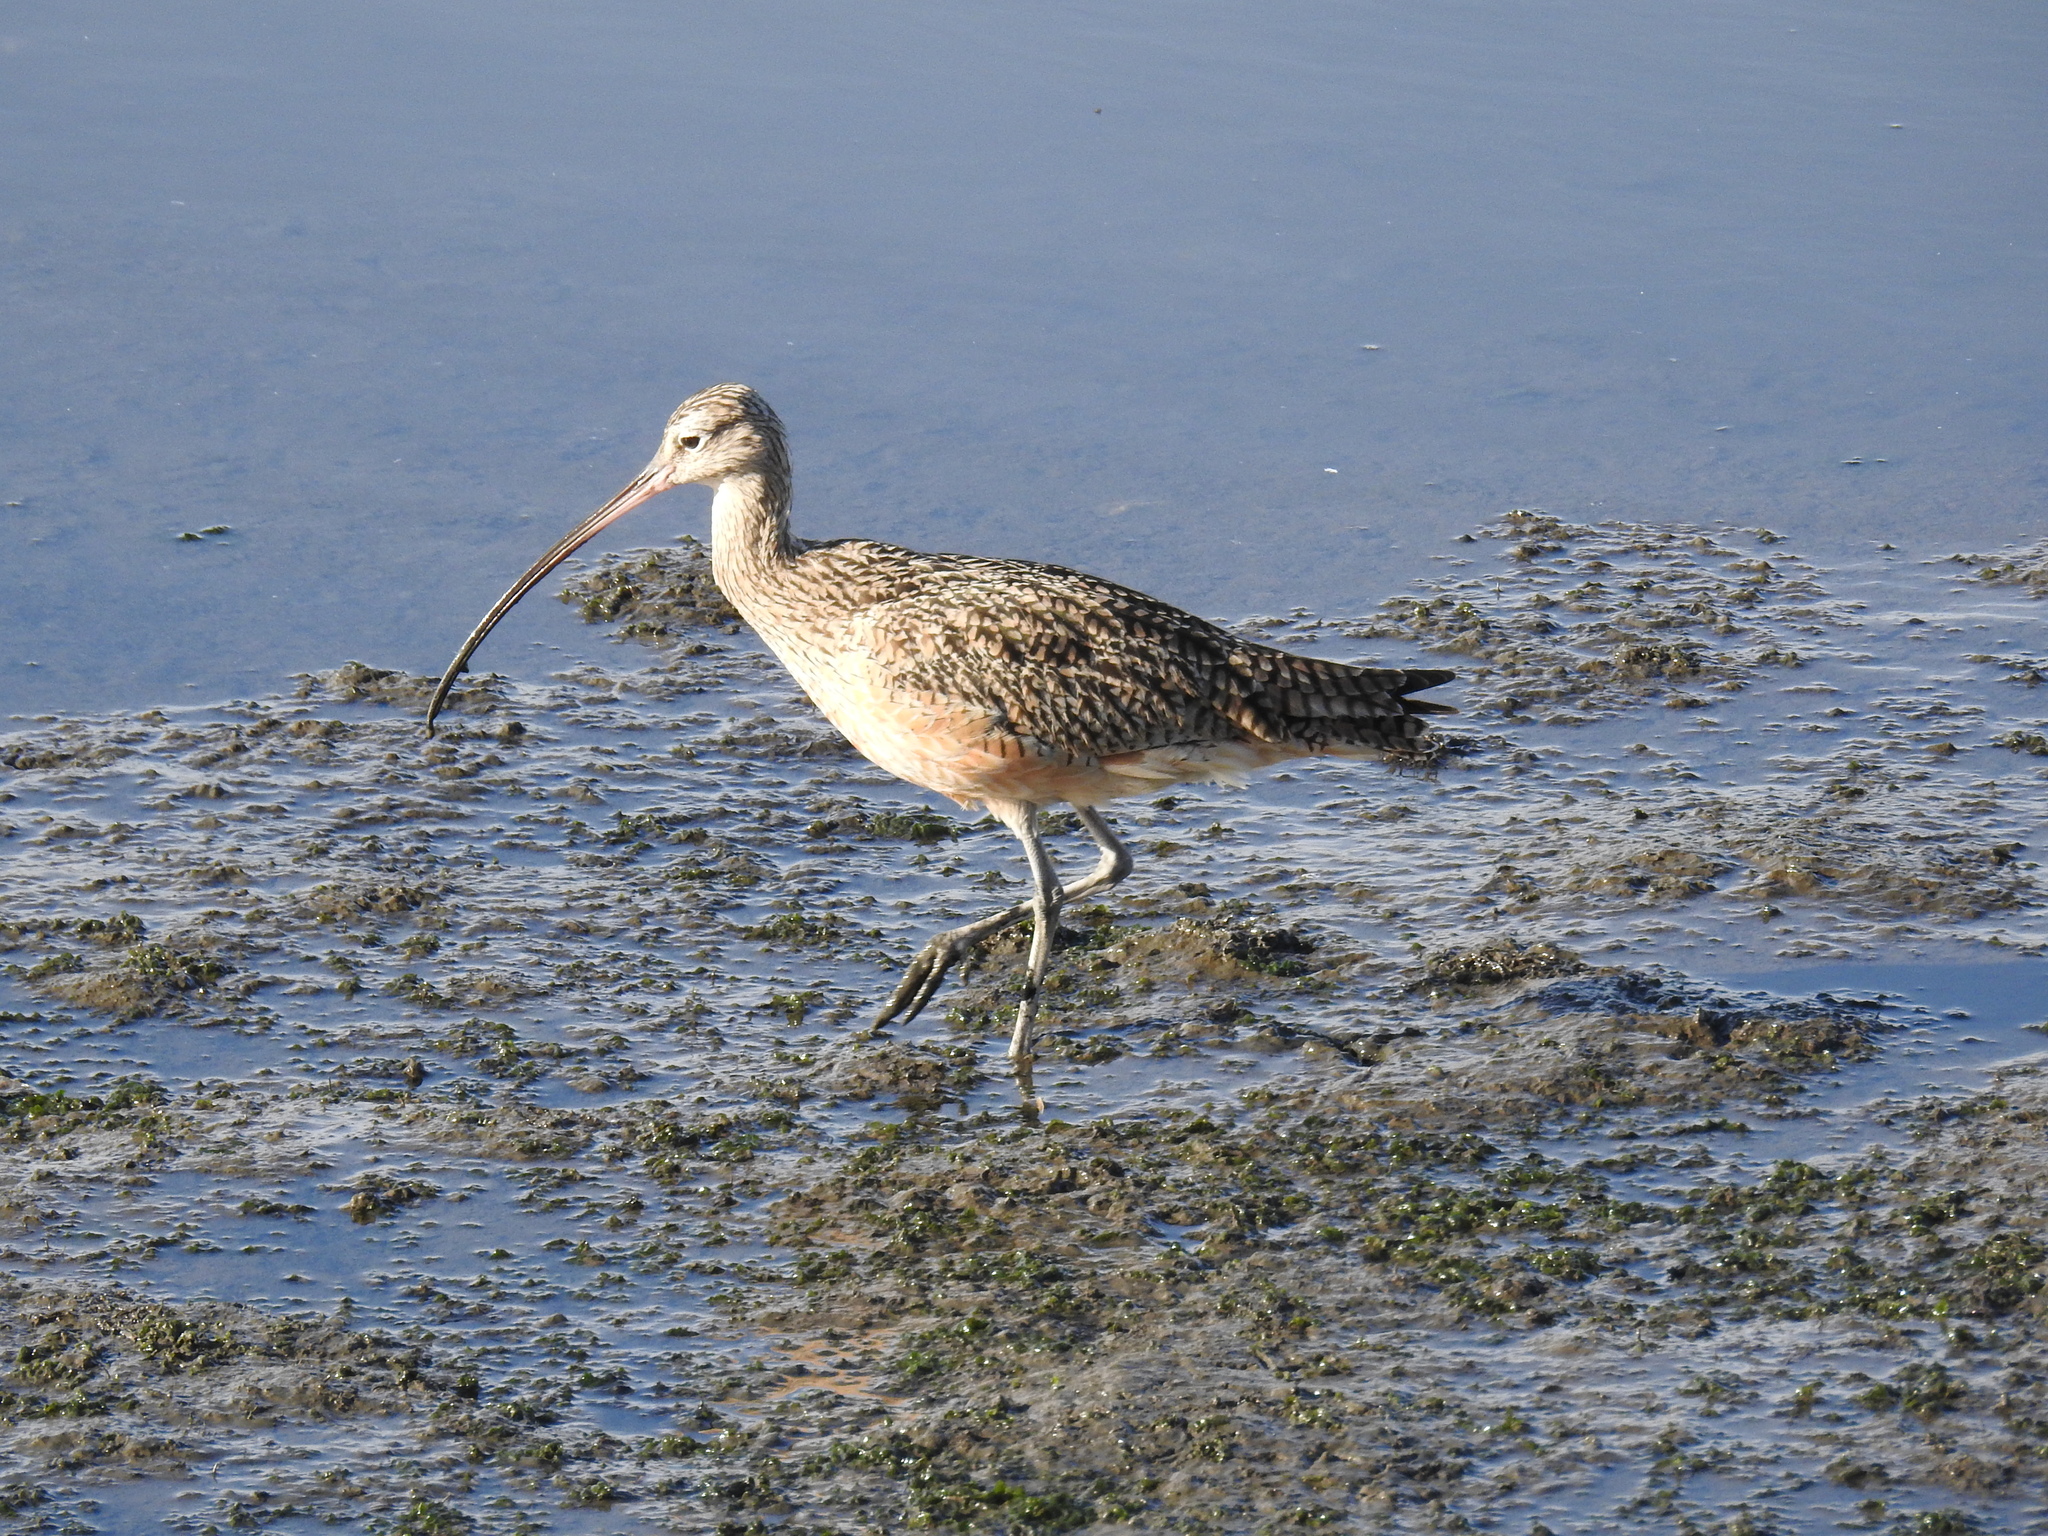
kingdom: Animalia
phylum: Chordata
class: Aves
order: Charadriiformes
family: Scolopacidae
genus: Numenius
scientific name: Numenius americanus
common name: Long-billed curlew
